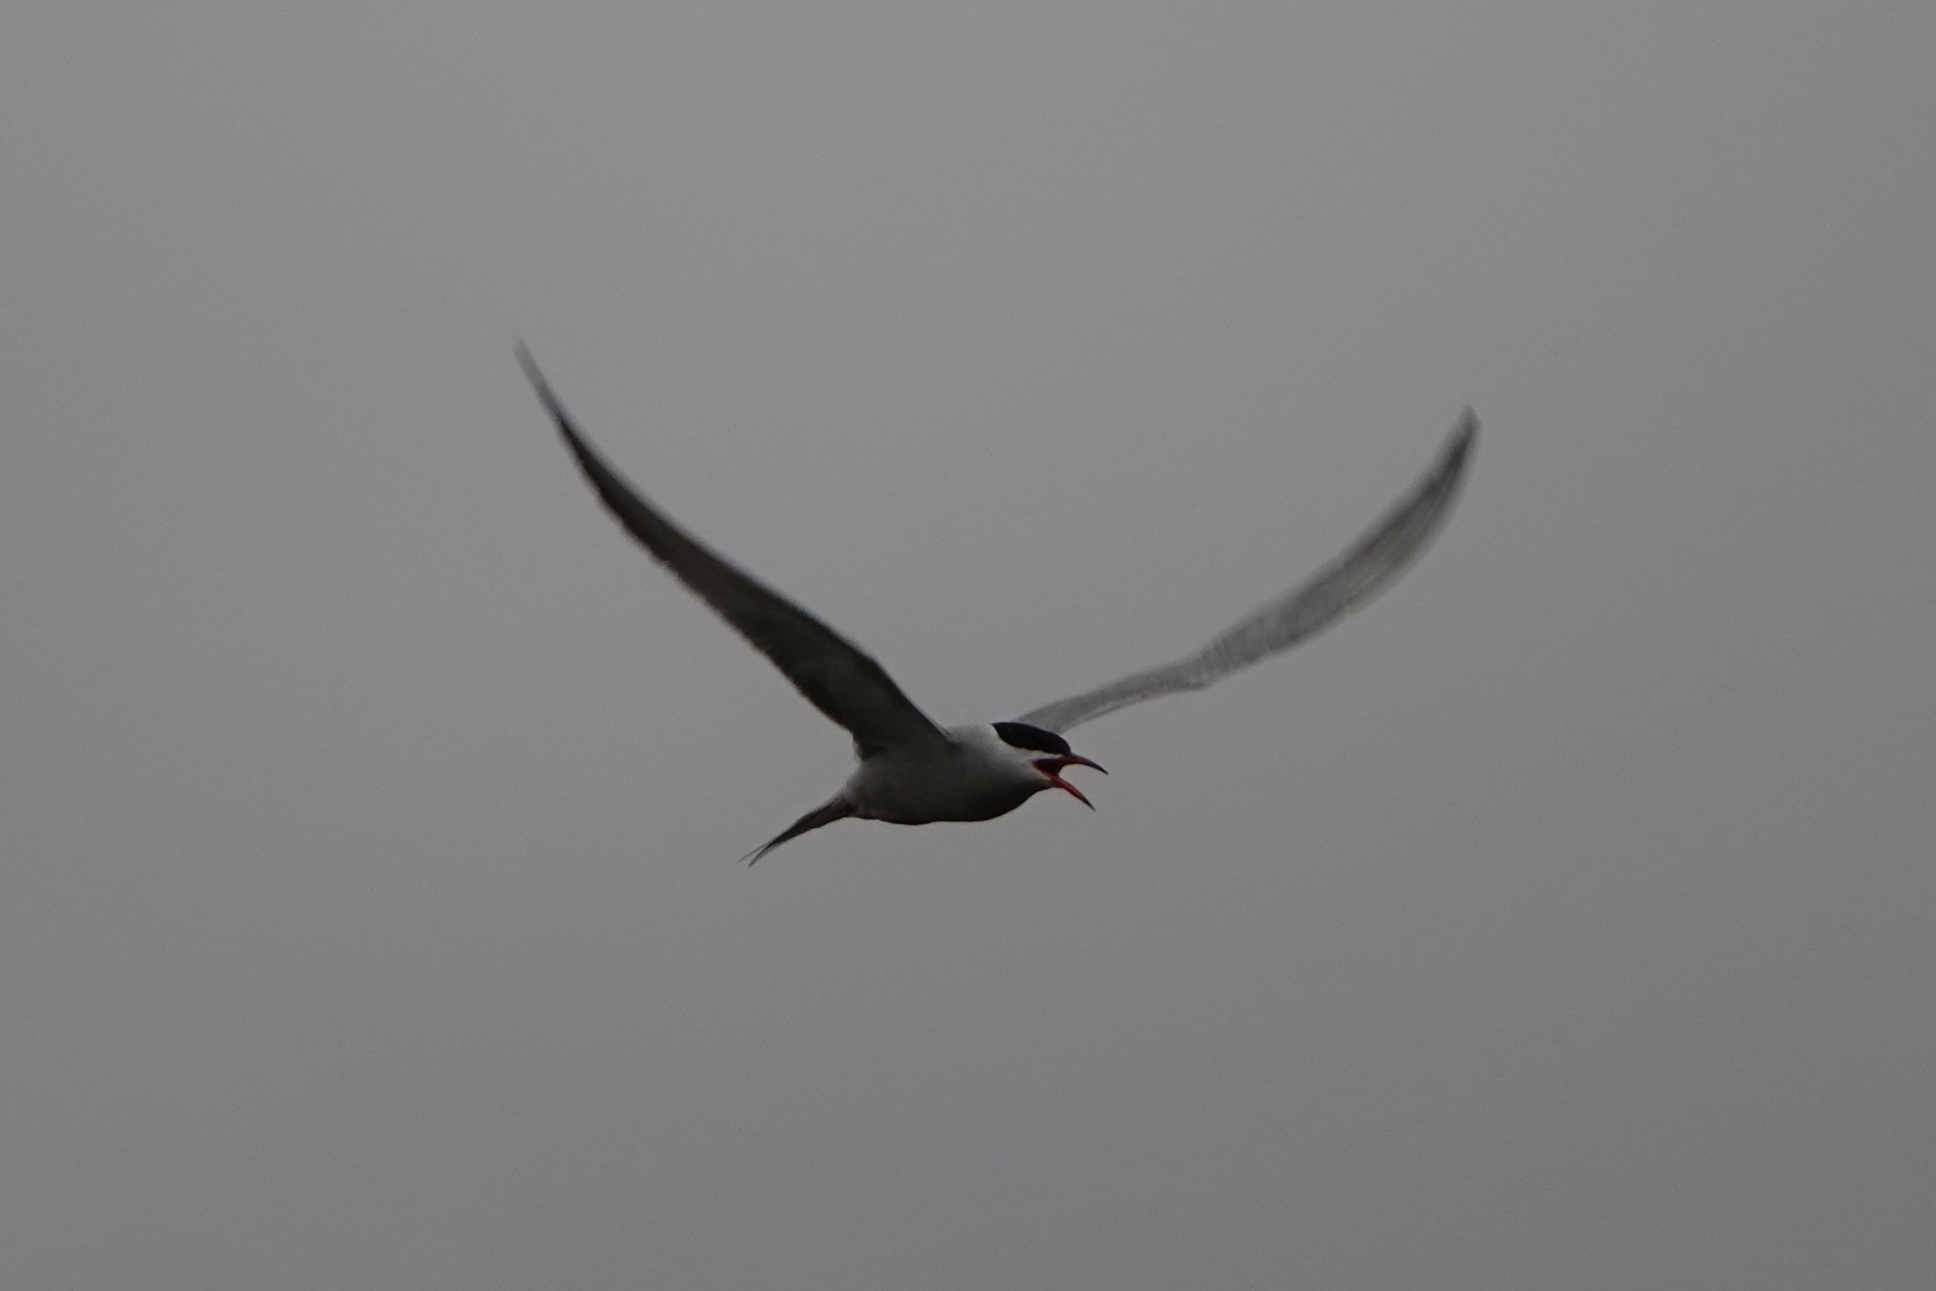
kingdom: Animalia
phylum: Chordata
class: Aves
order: Charadriiformes
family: Laridae
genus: Sterna
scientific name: Sterna hirundo
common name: Common tern
